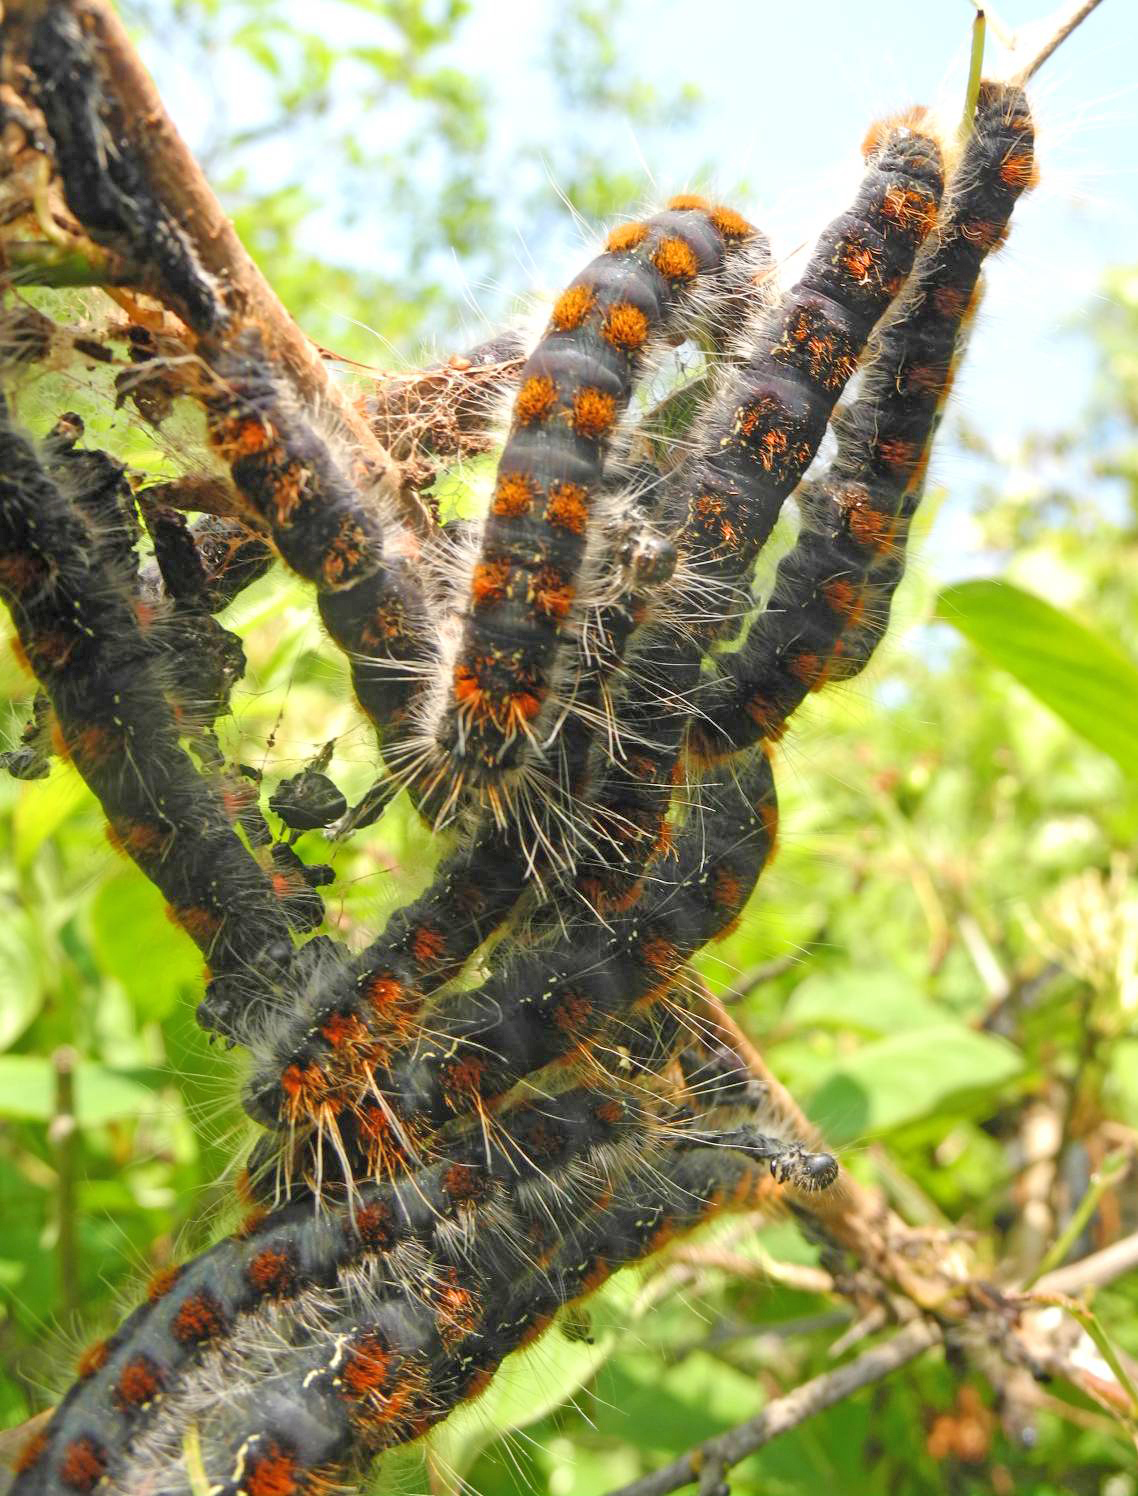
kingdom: Animalia
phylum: Arthropoda
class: Insecta
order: Lepidoptera
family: Lasiocampidae
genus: Eriogaster
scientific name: Eriogaster lanestris
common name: Small eggar
